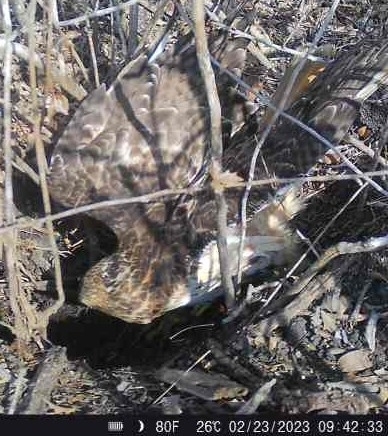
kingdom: Animalia
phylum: Chordata
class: Aves
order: Accipitriformes
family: Accipitridae
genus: Accipiter
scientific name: Accipiter cooperii
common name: Cooper's hawk
